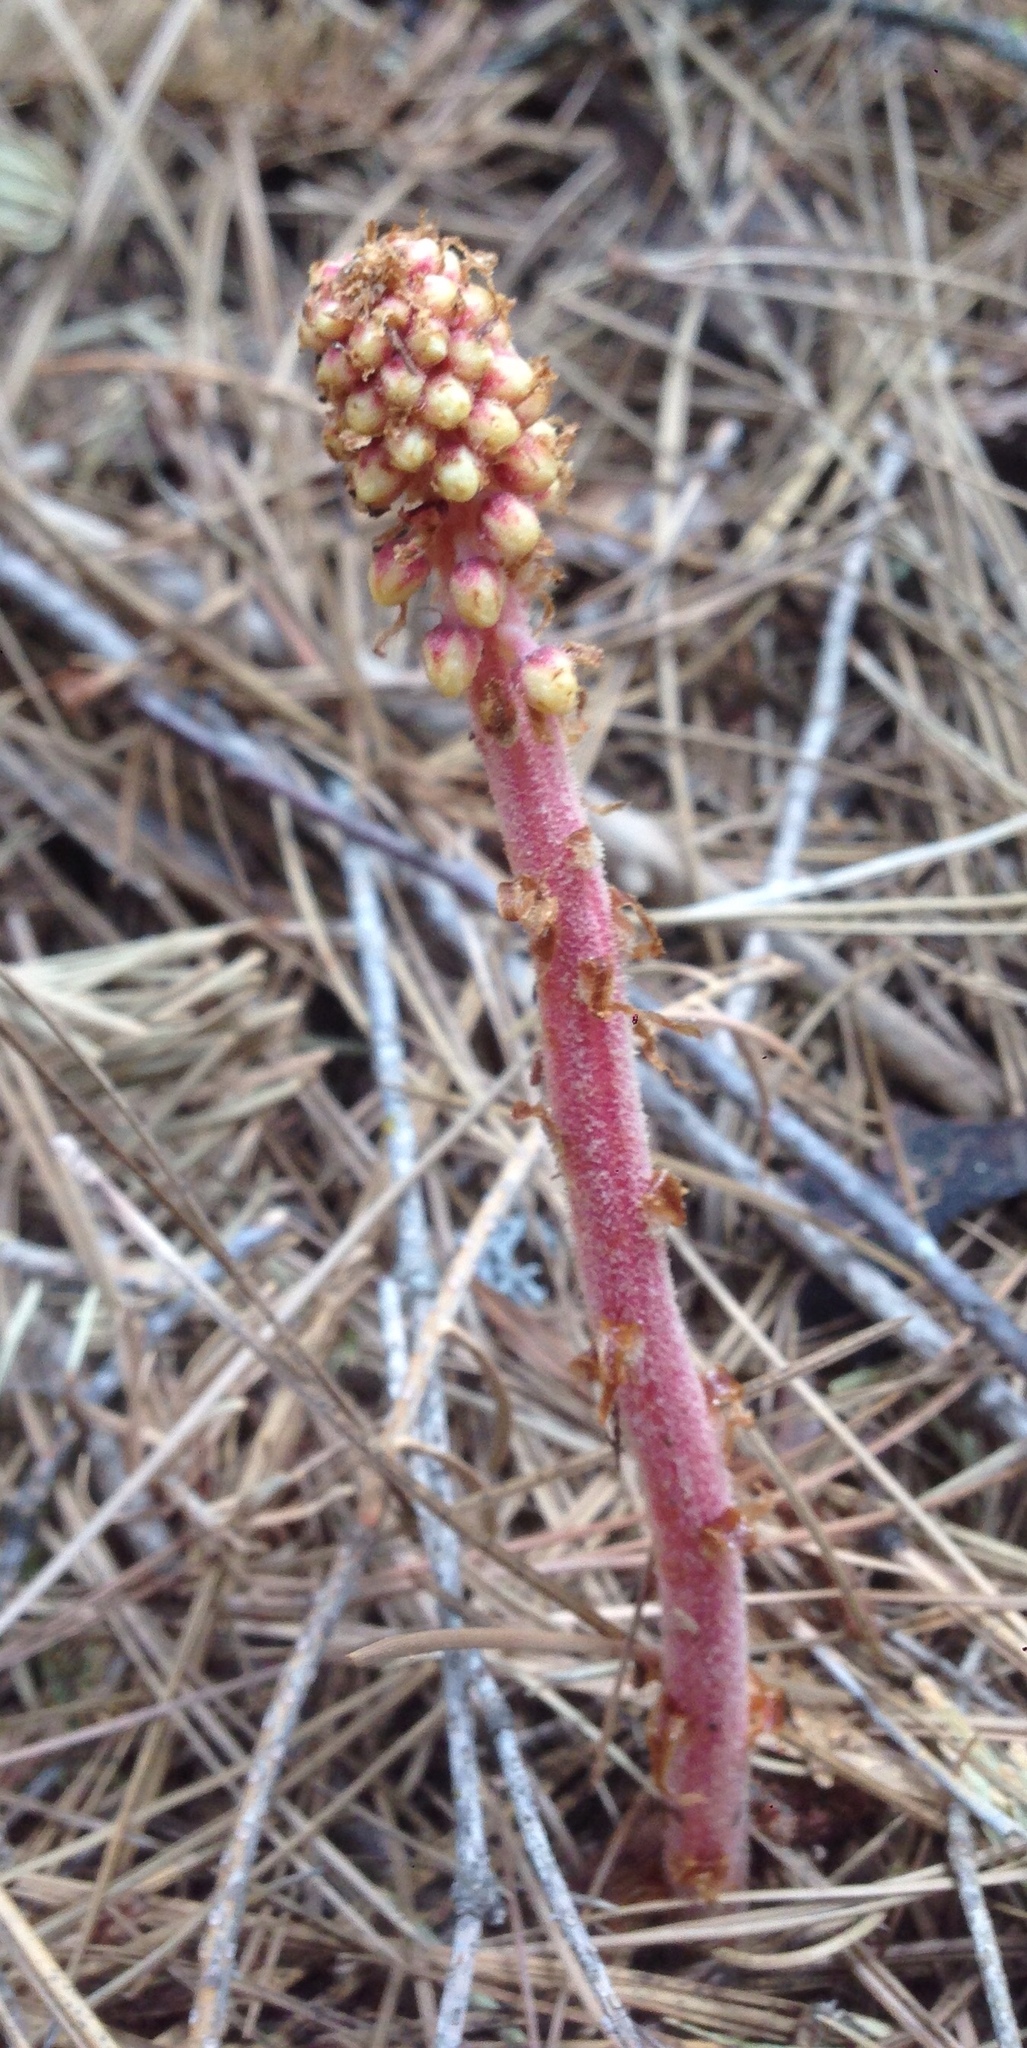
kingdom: Plantae
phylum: Tracheophyta
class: Magnoliopsida
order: Ericales
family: Ericaceae
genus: Pterospora
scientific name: Pterospora andromedea
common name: Giant bird's-nest
